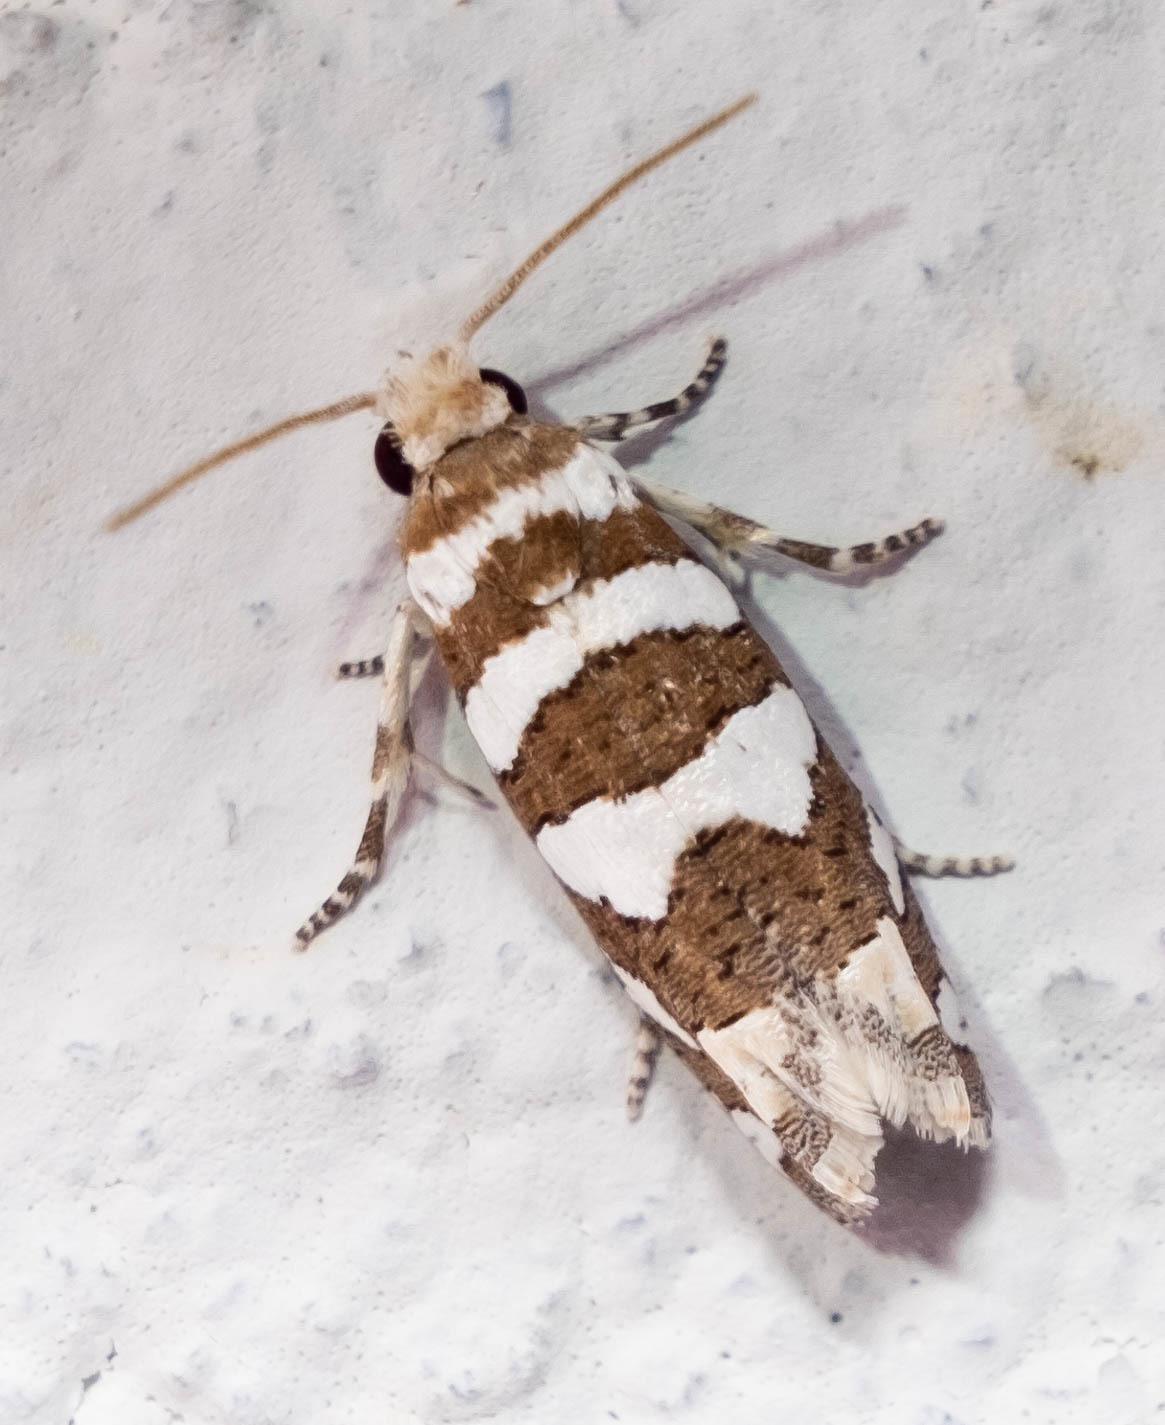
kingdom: Animalia
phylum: Arthropoda
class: Insecta
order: Lepidoptera
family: Tortricidae
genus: Pelochrista
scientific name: Pelochrista robinsonana
